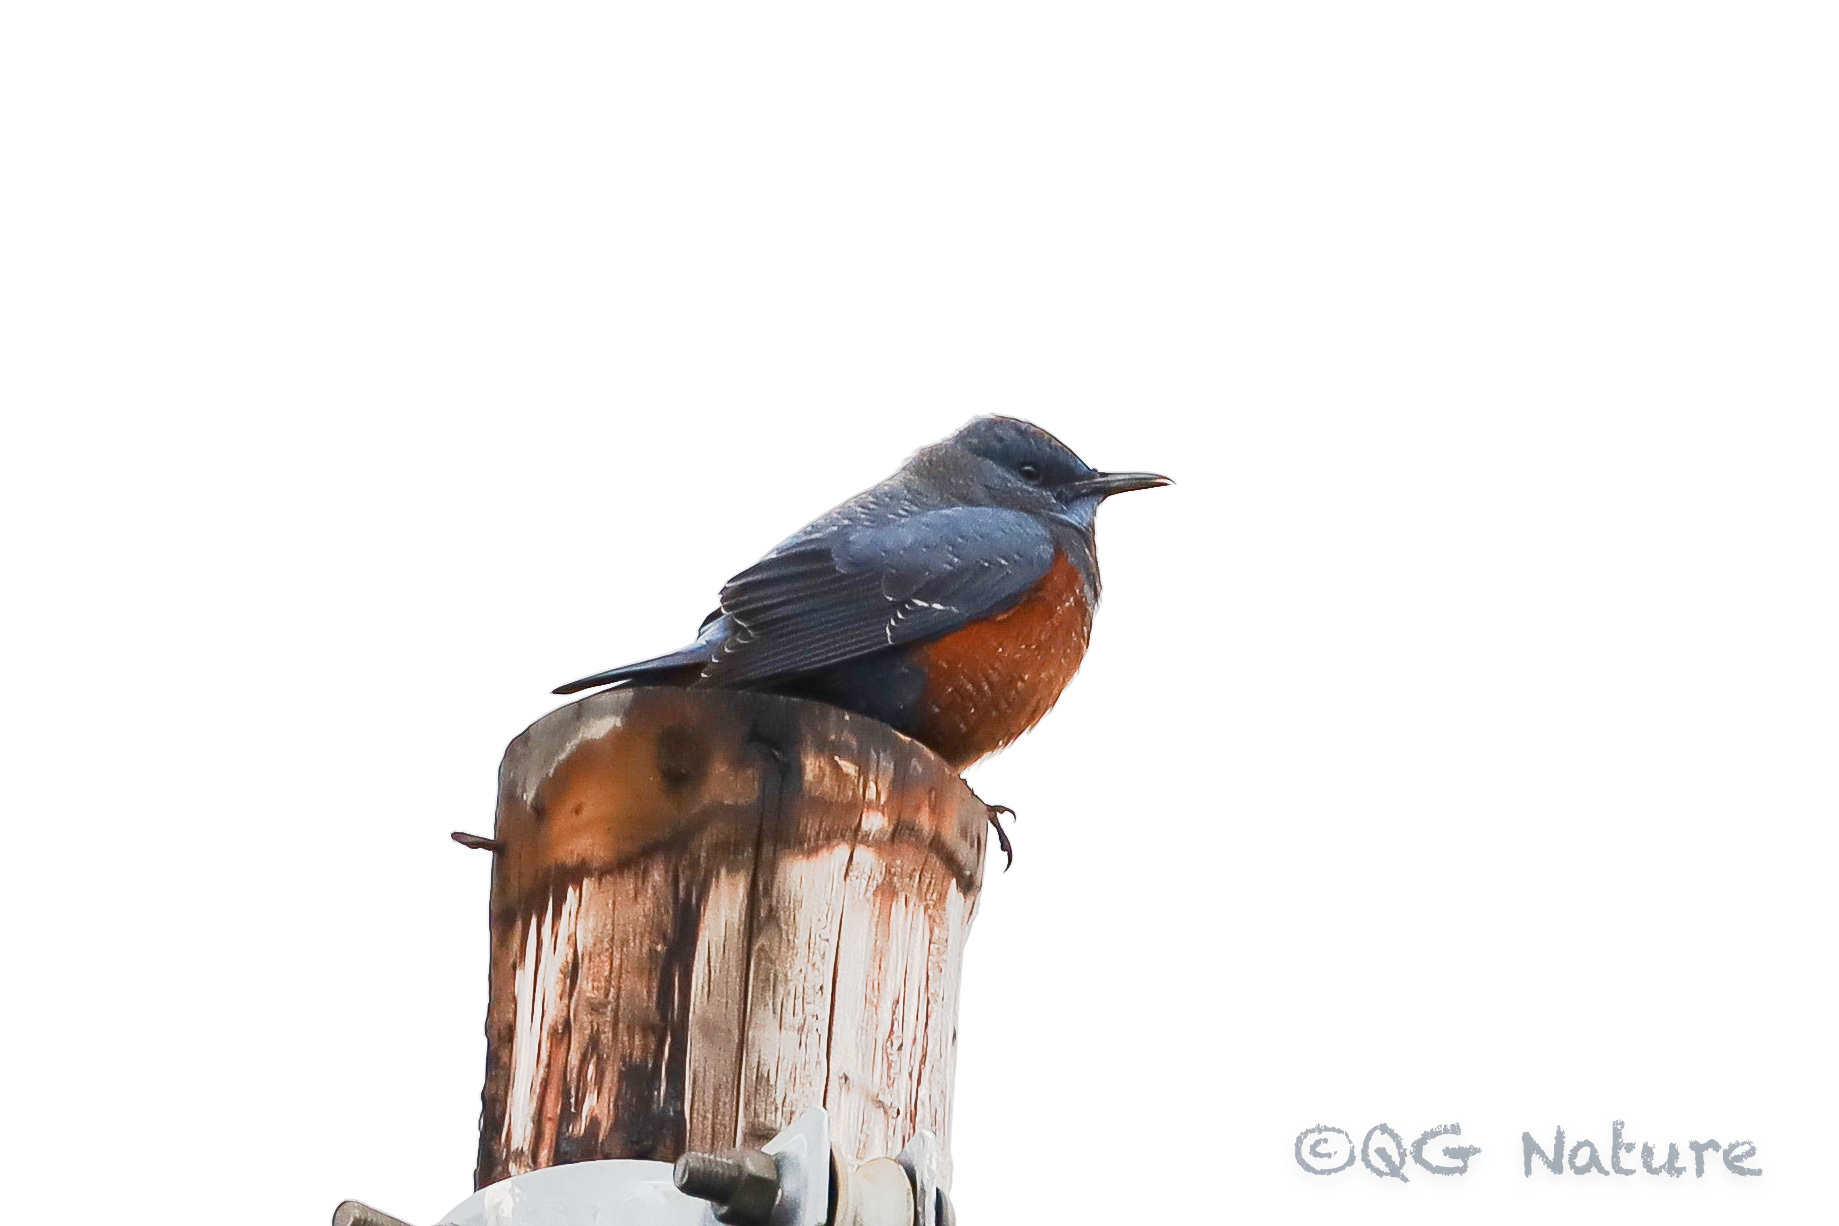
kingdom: Animalia
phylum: Chordata
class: Aves
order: Passeriformes
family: Muscicapidae
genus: Monticola
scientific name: Monticola solitarius
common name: Blue rock thrush
